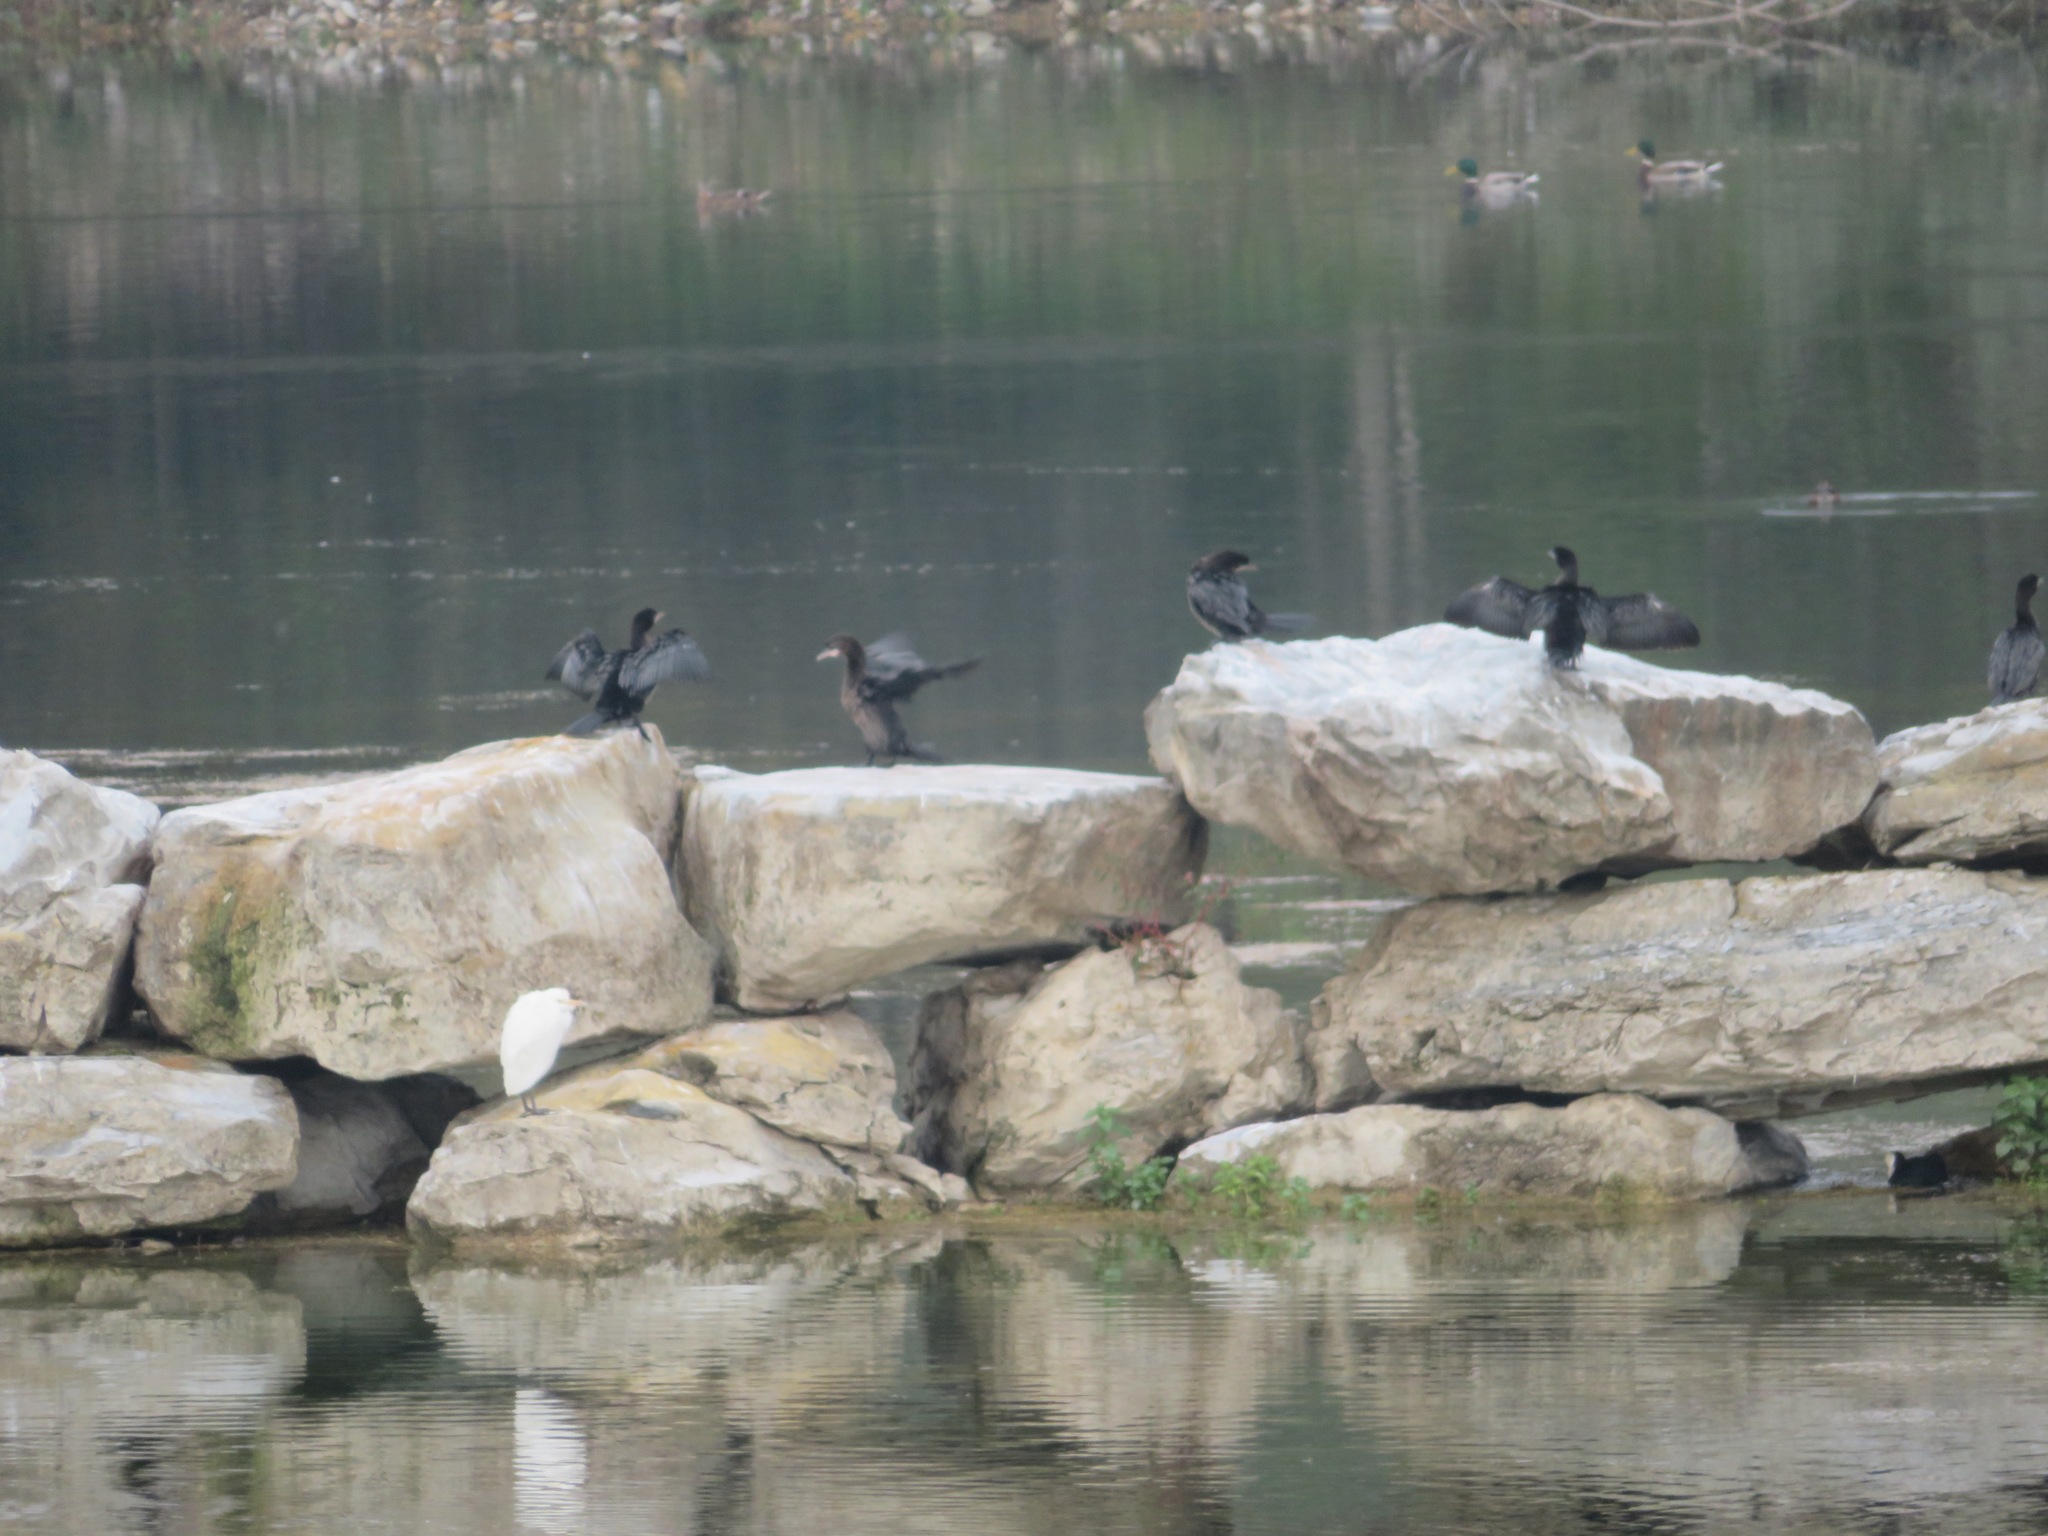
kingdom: Animalia
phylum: Chordata
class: Aves
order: Suliformes
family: Phalacrocoracidae
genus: Microcarbo
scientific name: Microcarbo pygmaeus
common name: Pygmy cormorant
